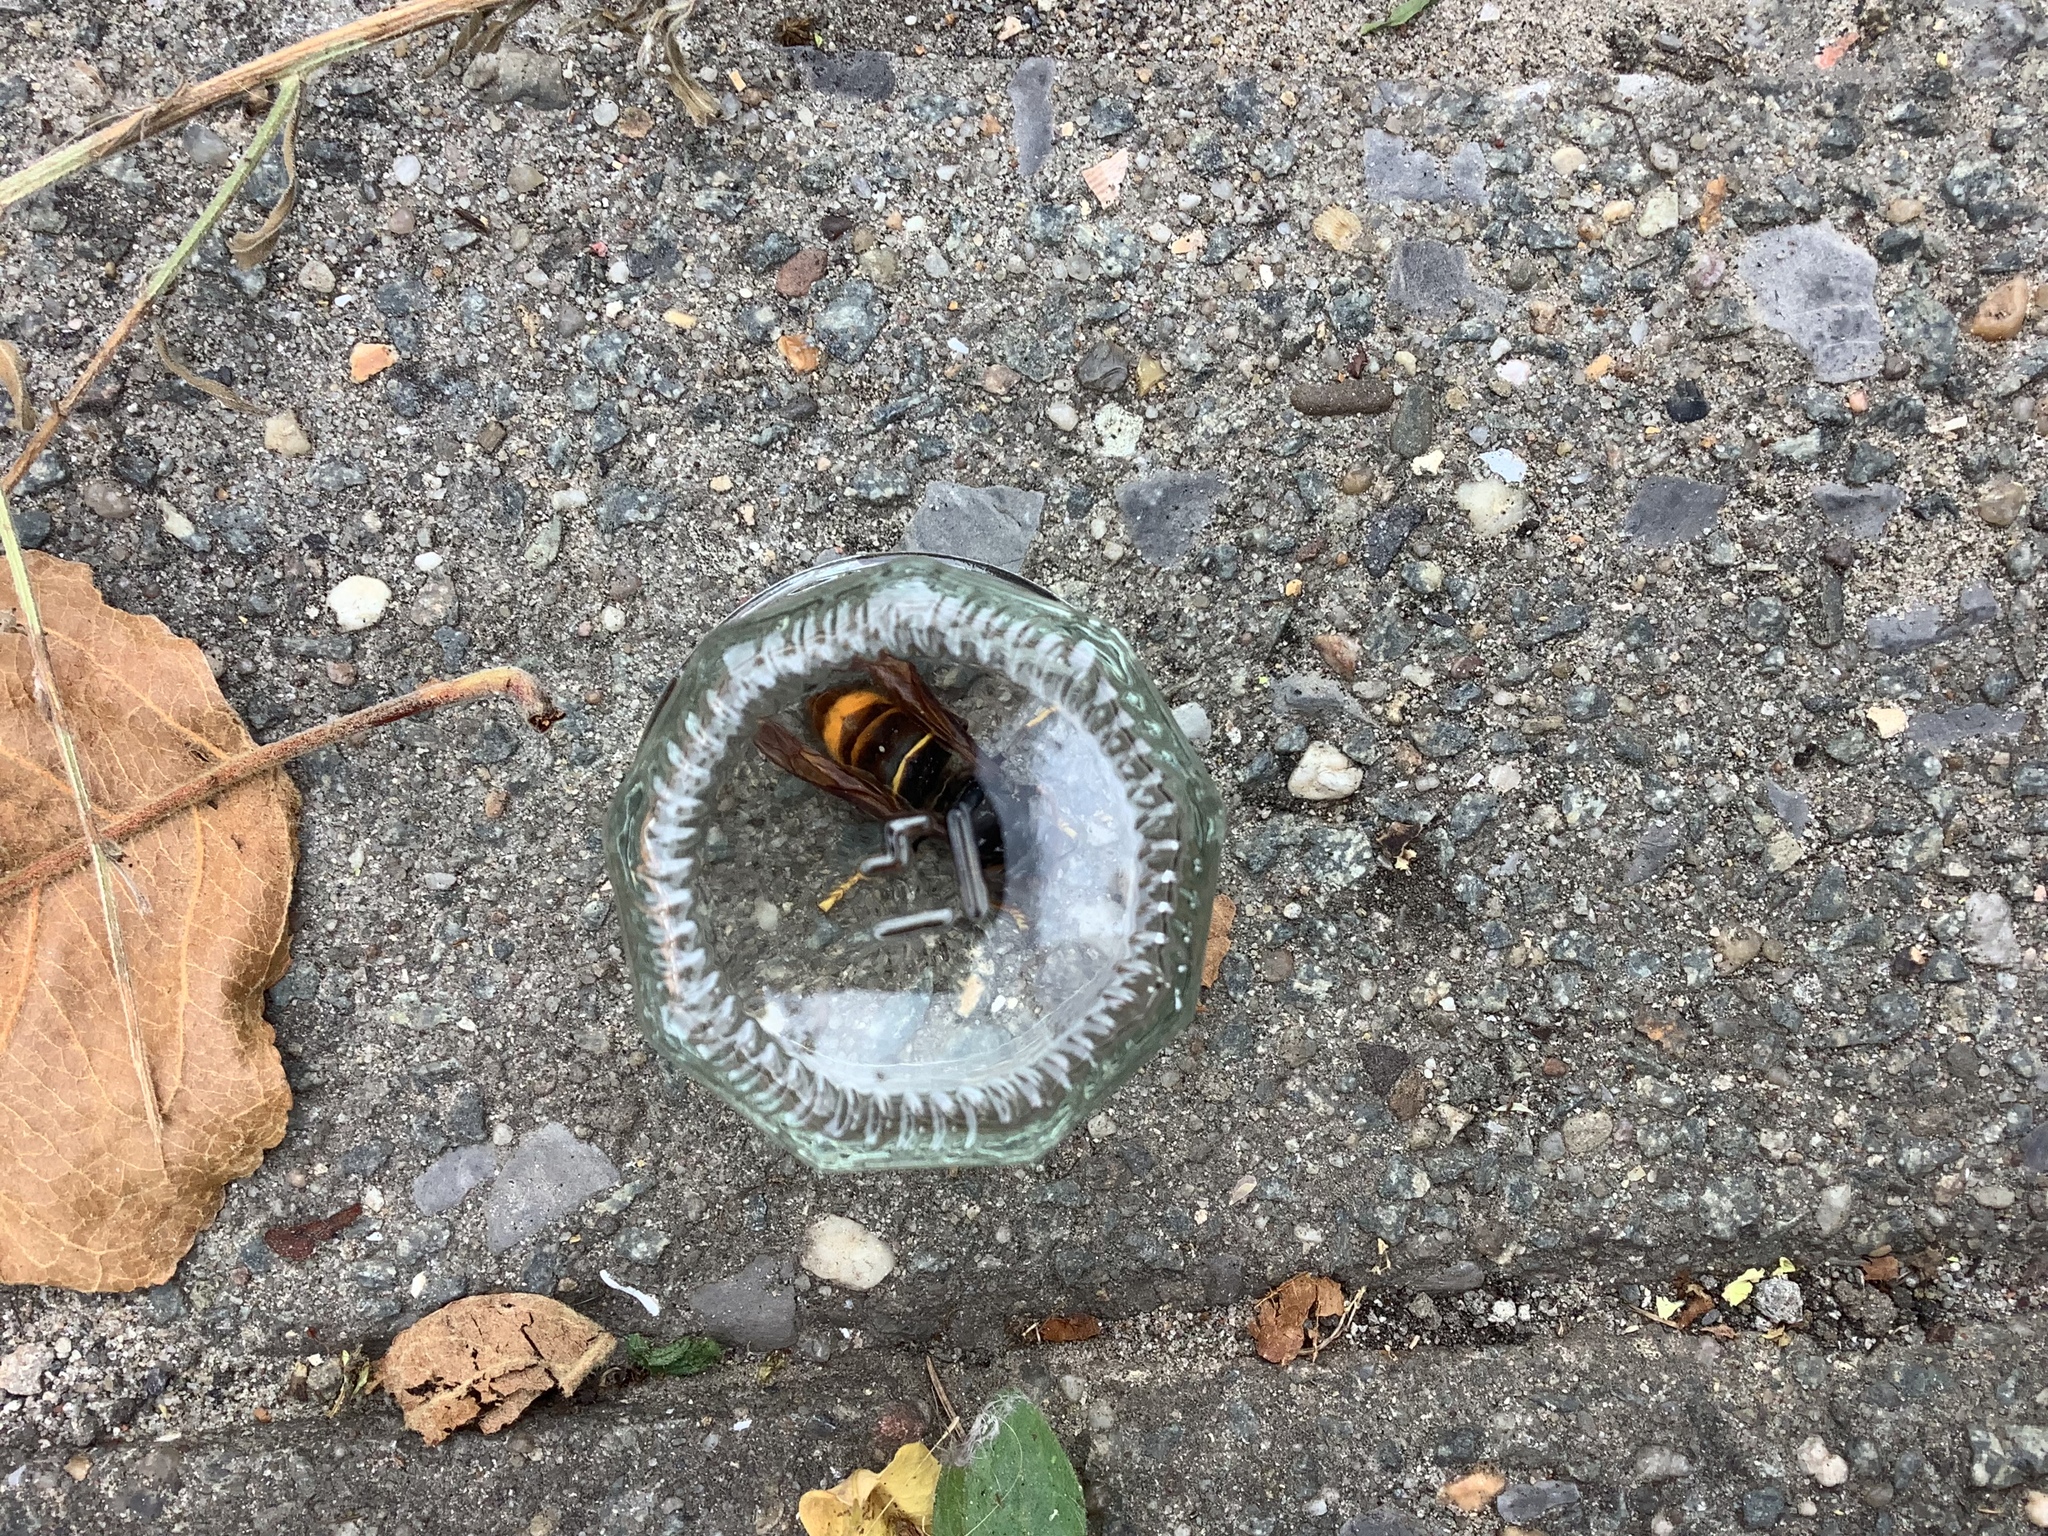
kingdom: Animalia
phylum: Arthropoda
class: Insecta
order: Hymenoptera
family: Vespidae
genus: Vespa
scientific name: Vespa velutina
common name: Asian hornet
